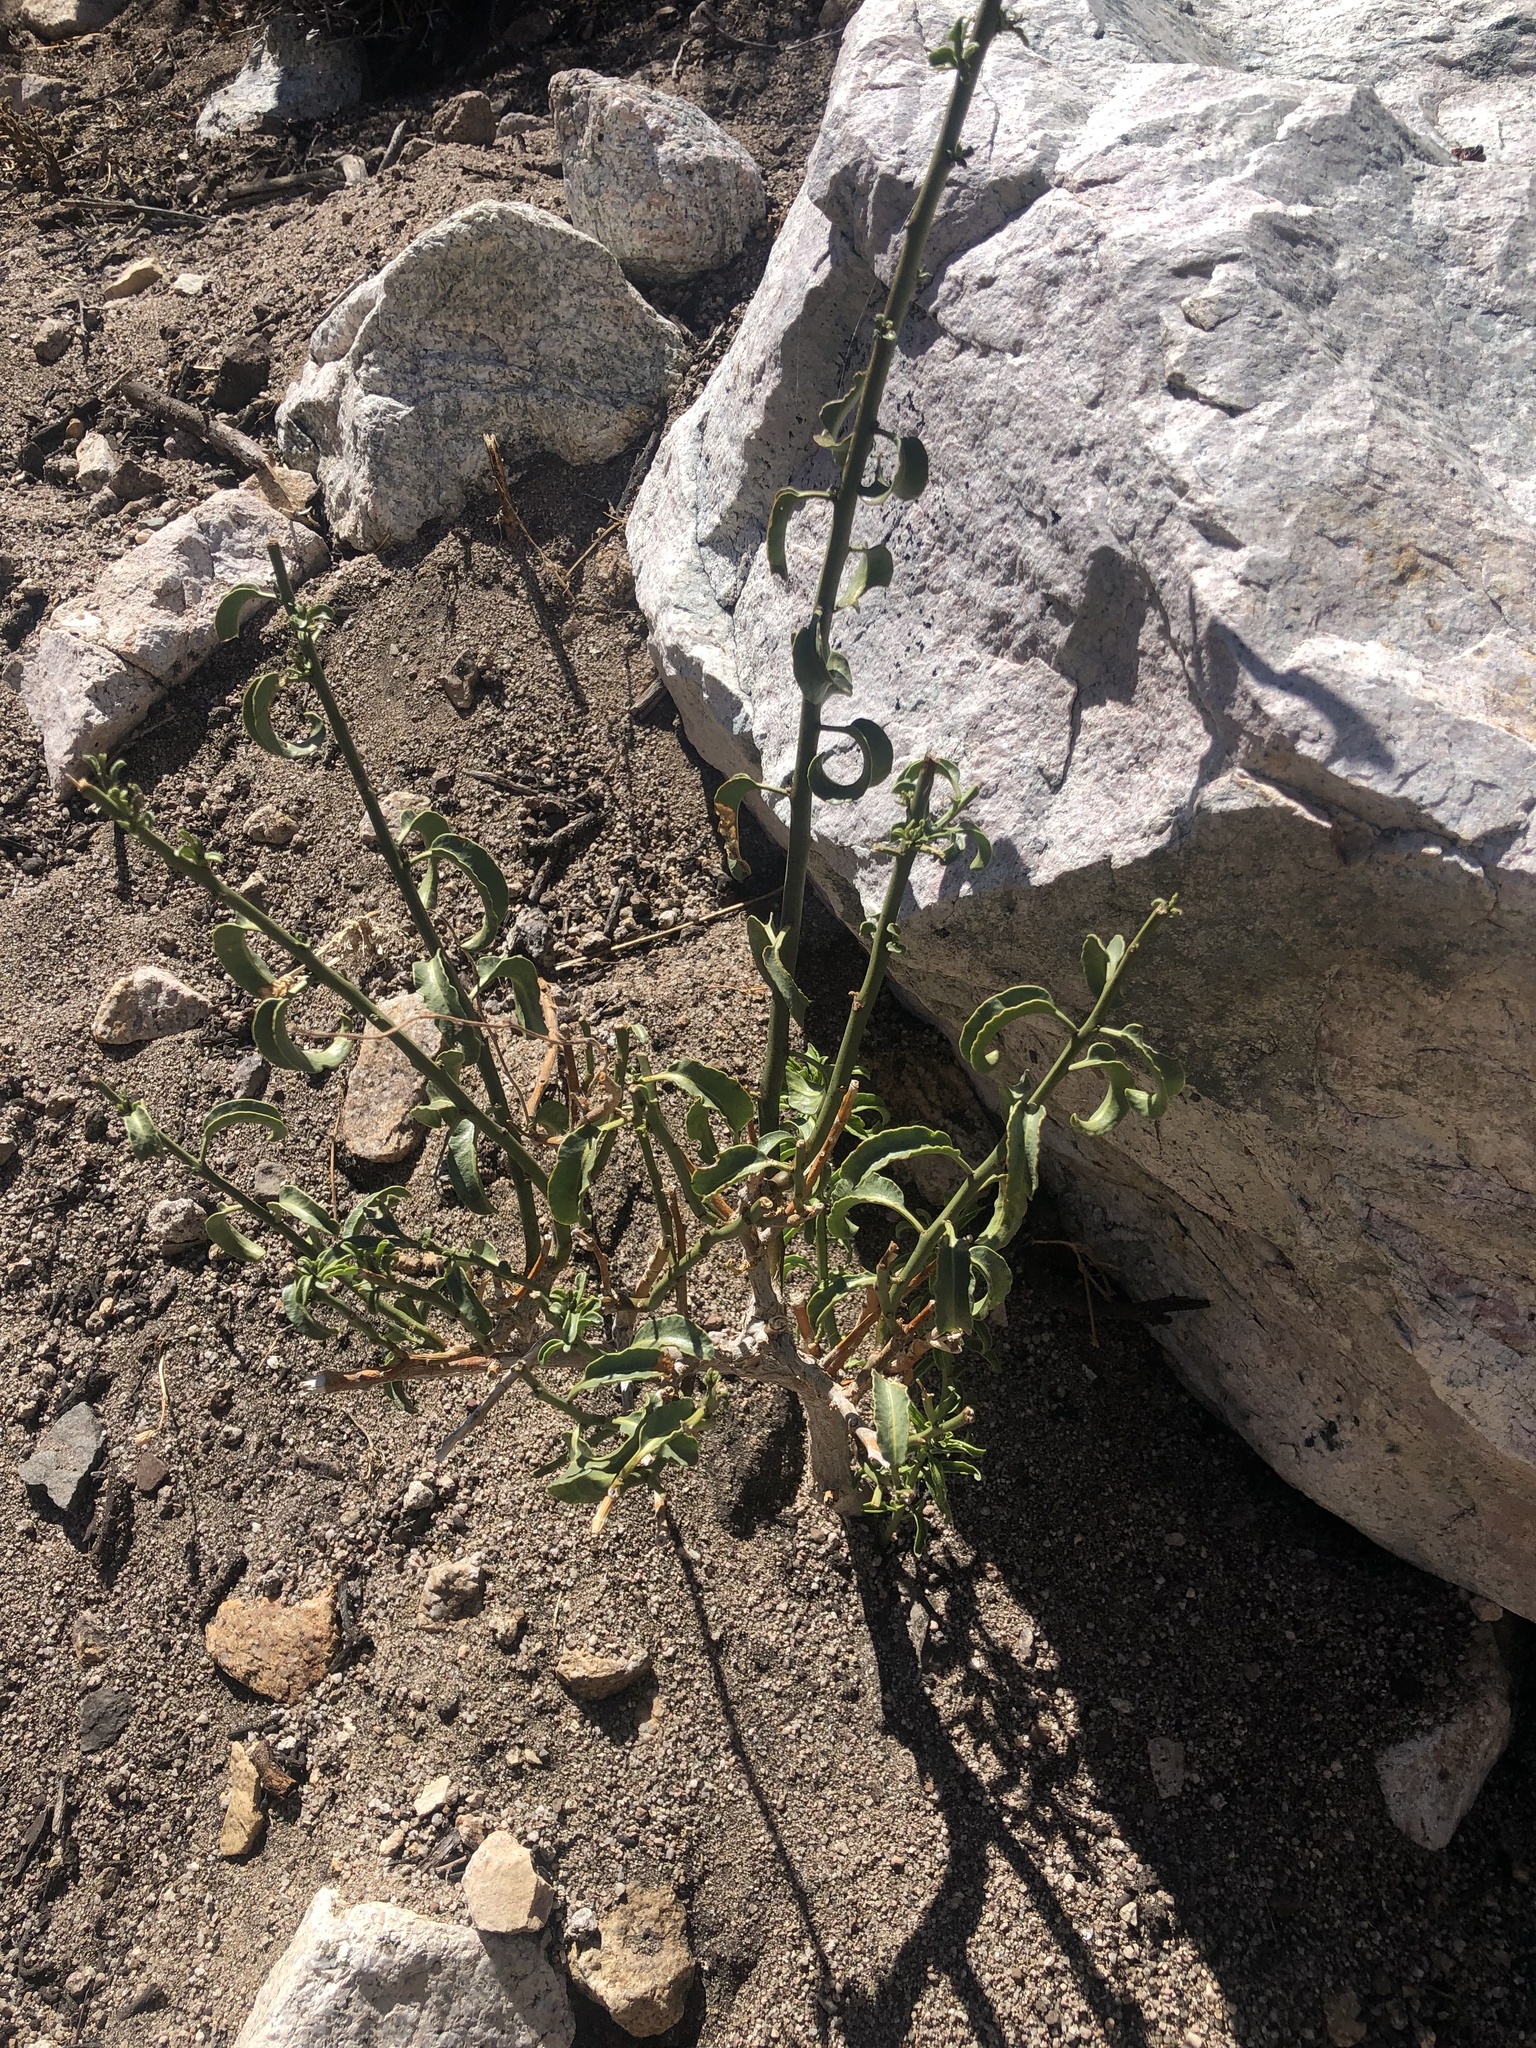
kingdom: Plantae
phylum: Tracheophyta
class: Magnoliopsida
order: Solanales
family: Solanaceae
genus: Solanum
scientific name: Solanum crispum
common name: Chilean nightshade
